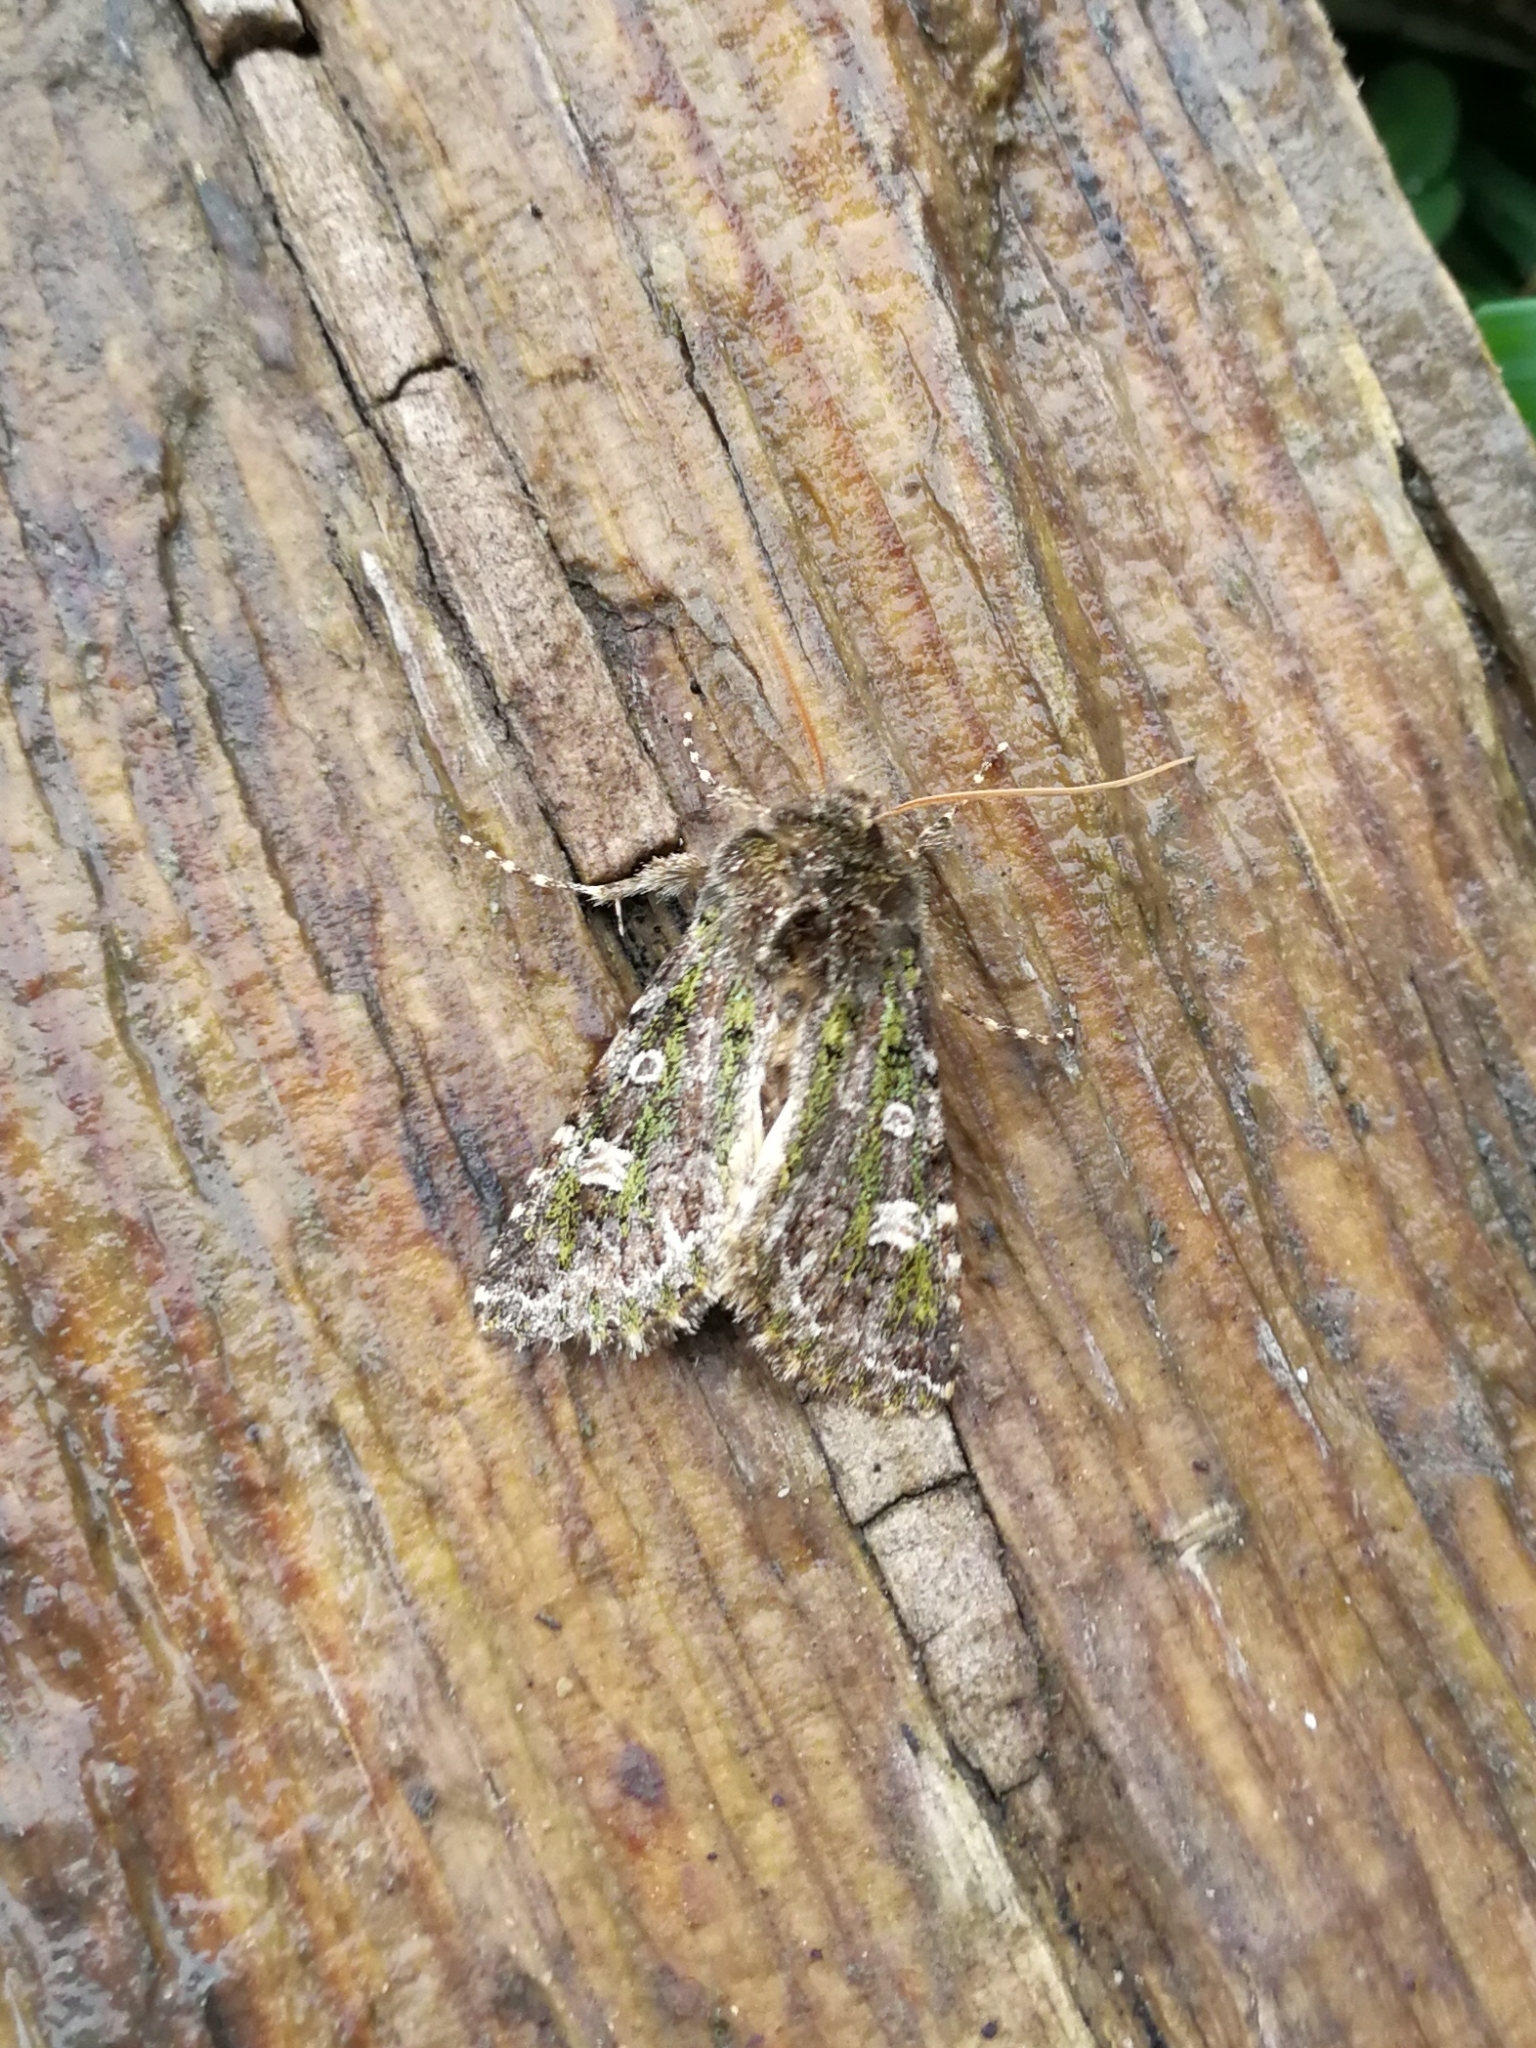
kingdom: Animalia
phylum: Arthropoda
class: Insecta
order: Lepidoptera
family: Noctuidae
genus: Valeria
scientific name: Valeria jaspidea
